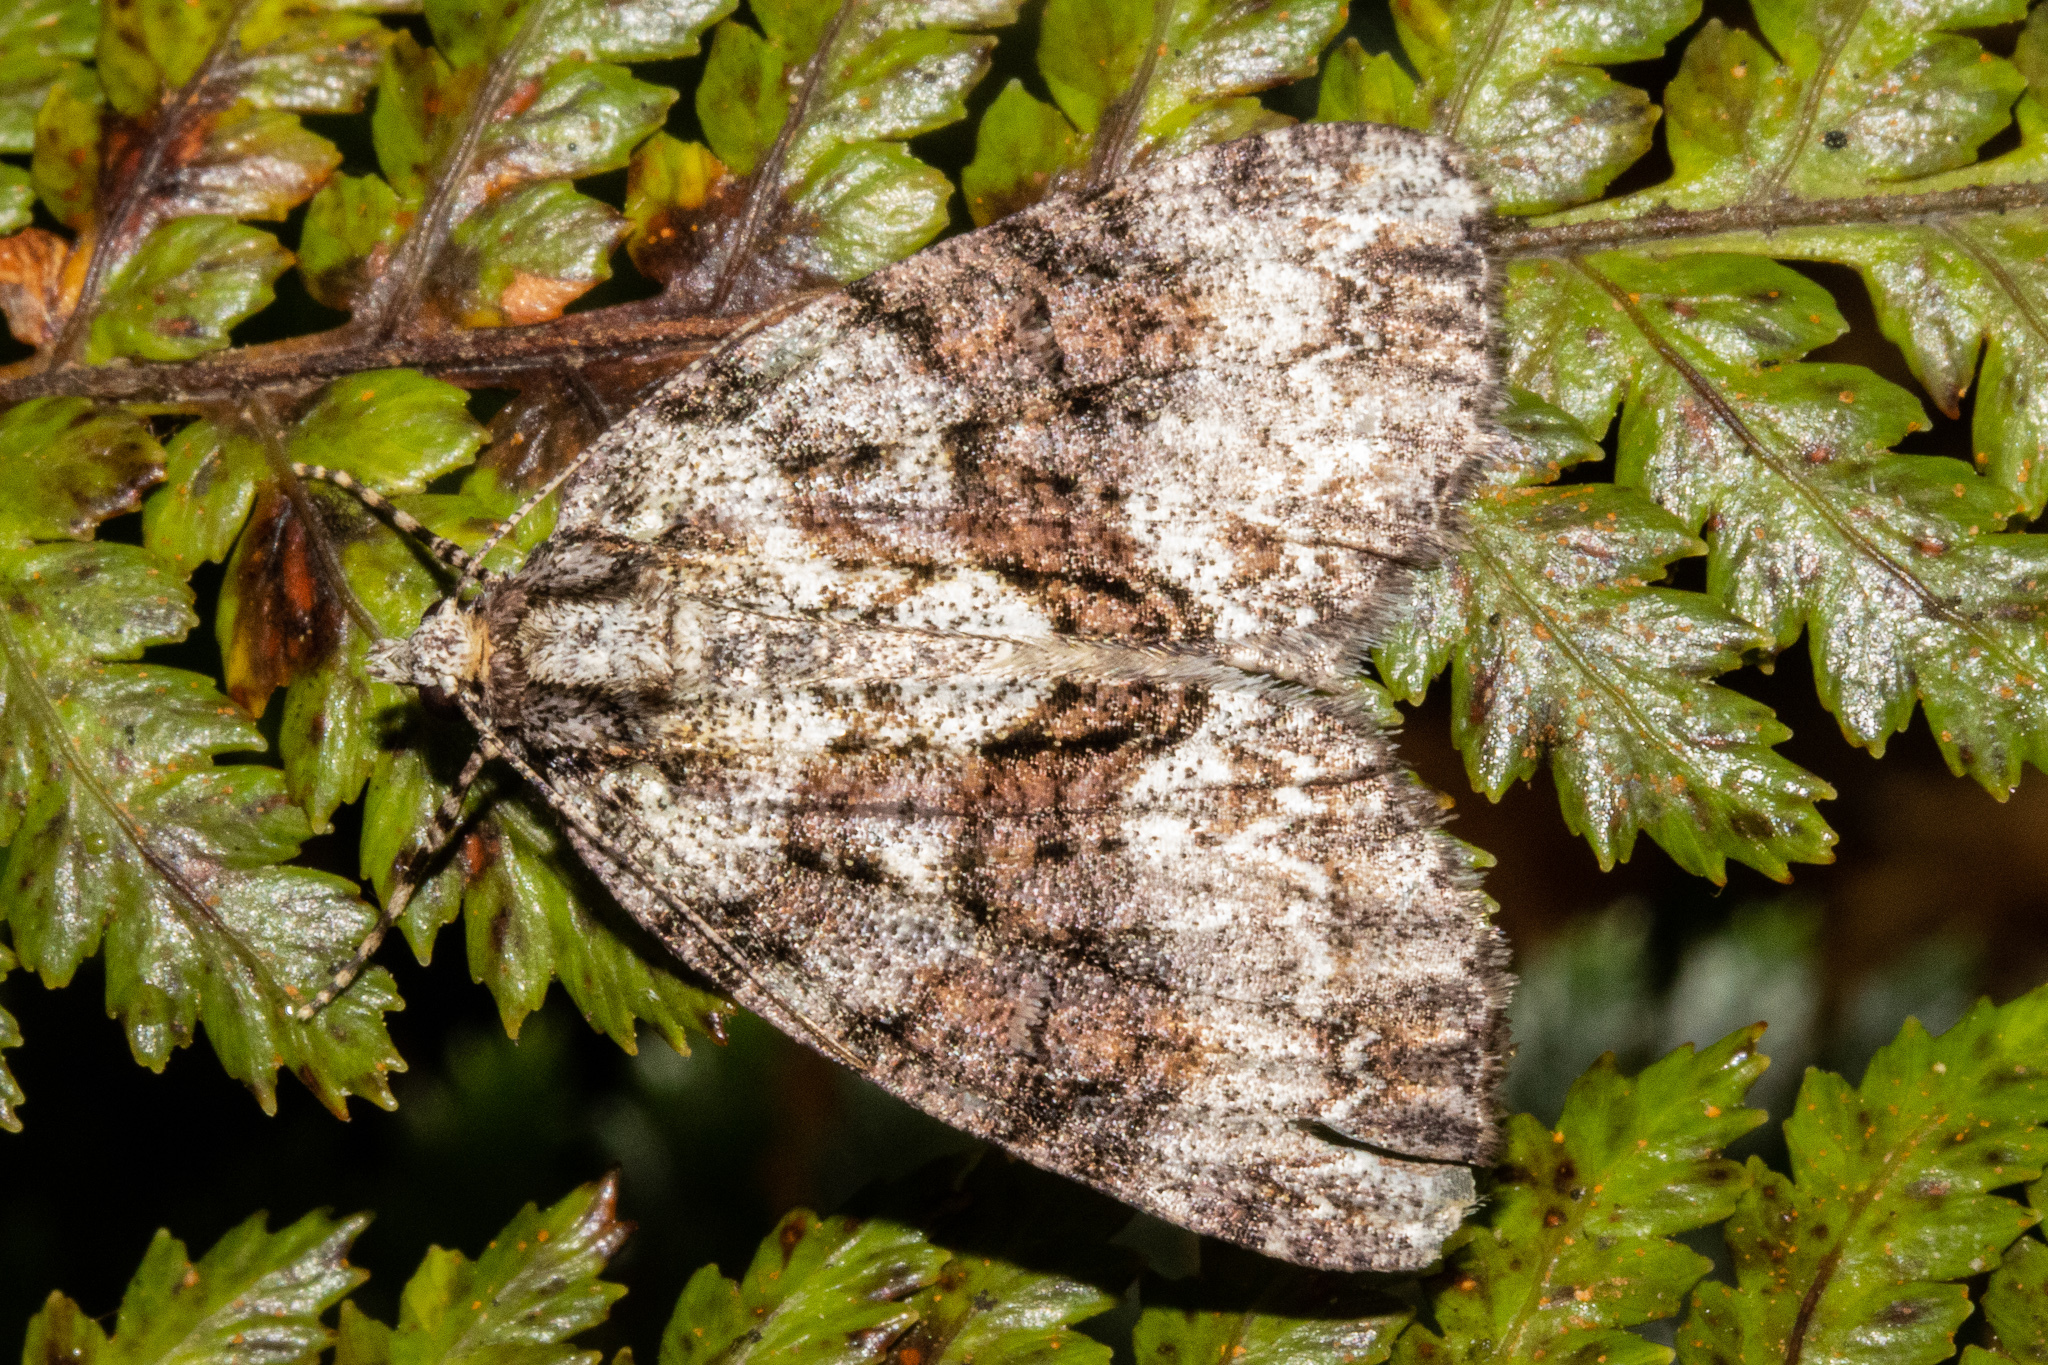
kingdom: Animalia
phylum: Arthropoda
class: Insecta
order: Lepidoptera
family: Geometridae
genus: Pseudocoremia
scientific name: Pseudocoremia suavis
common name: Common forest looper
